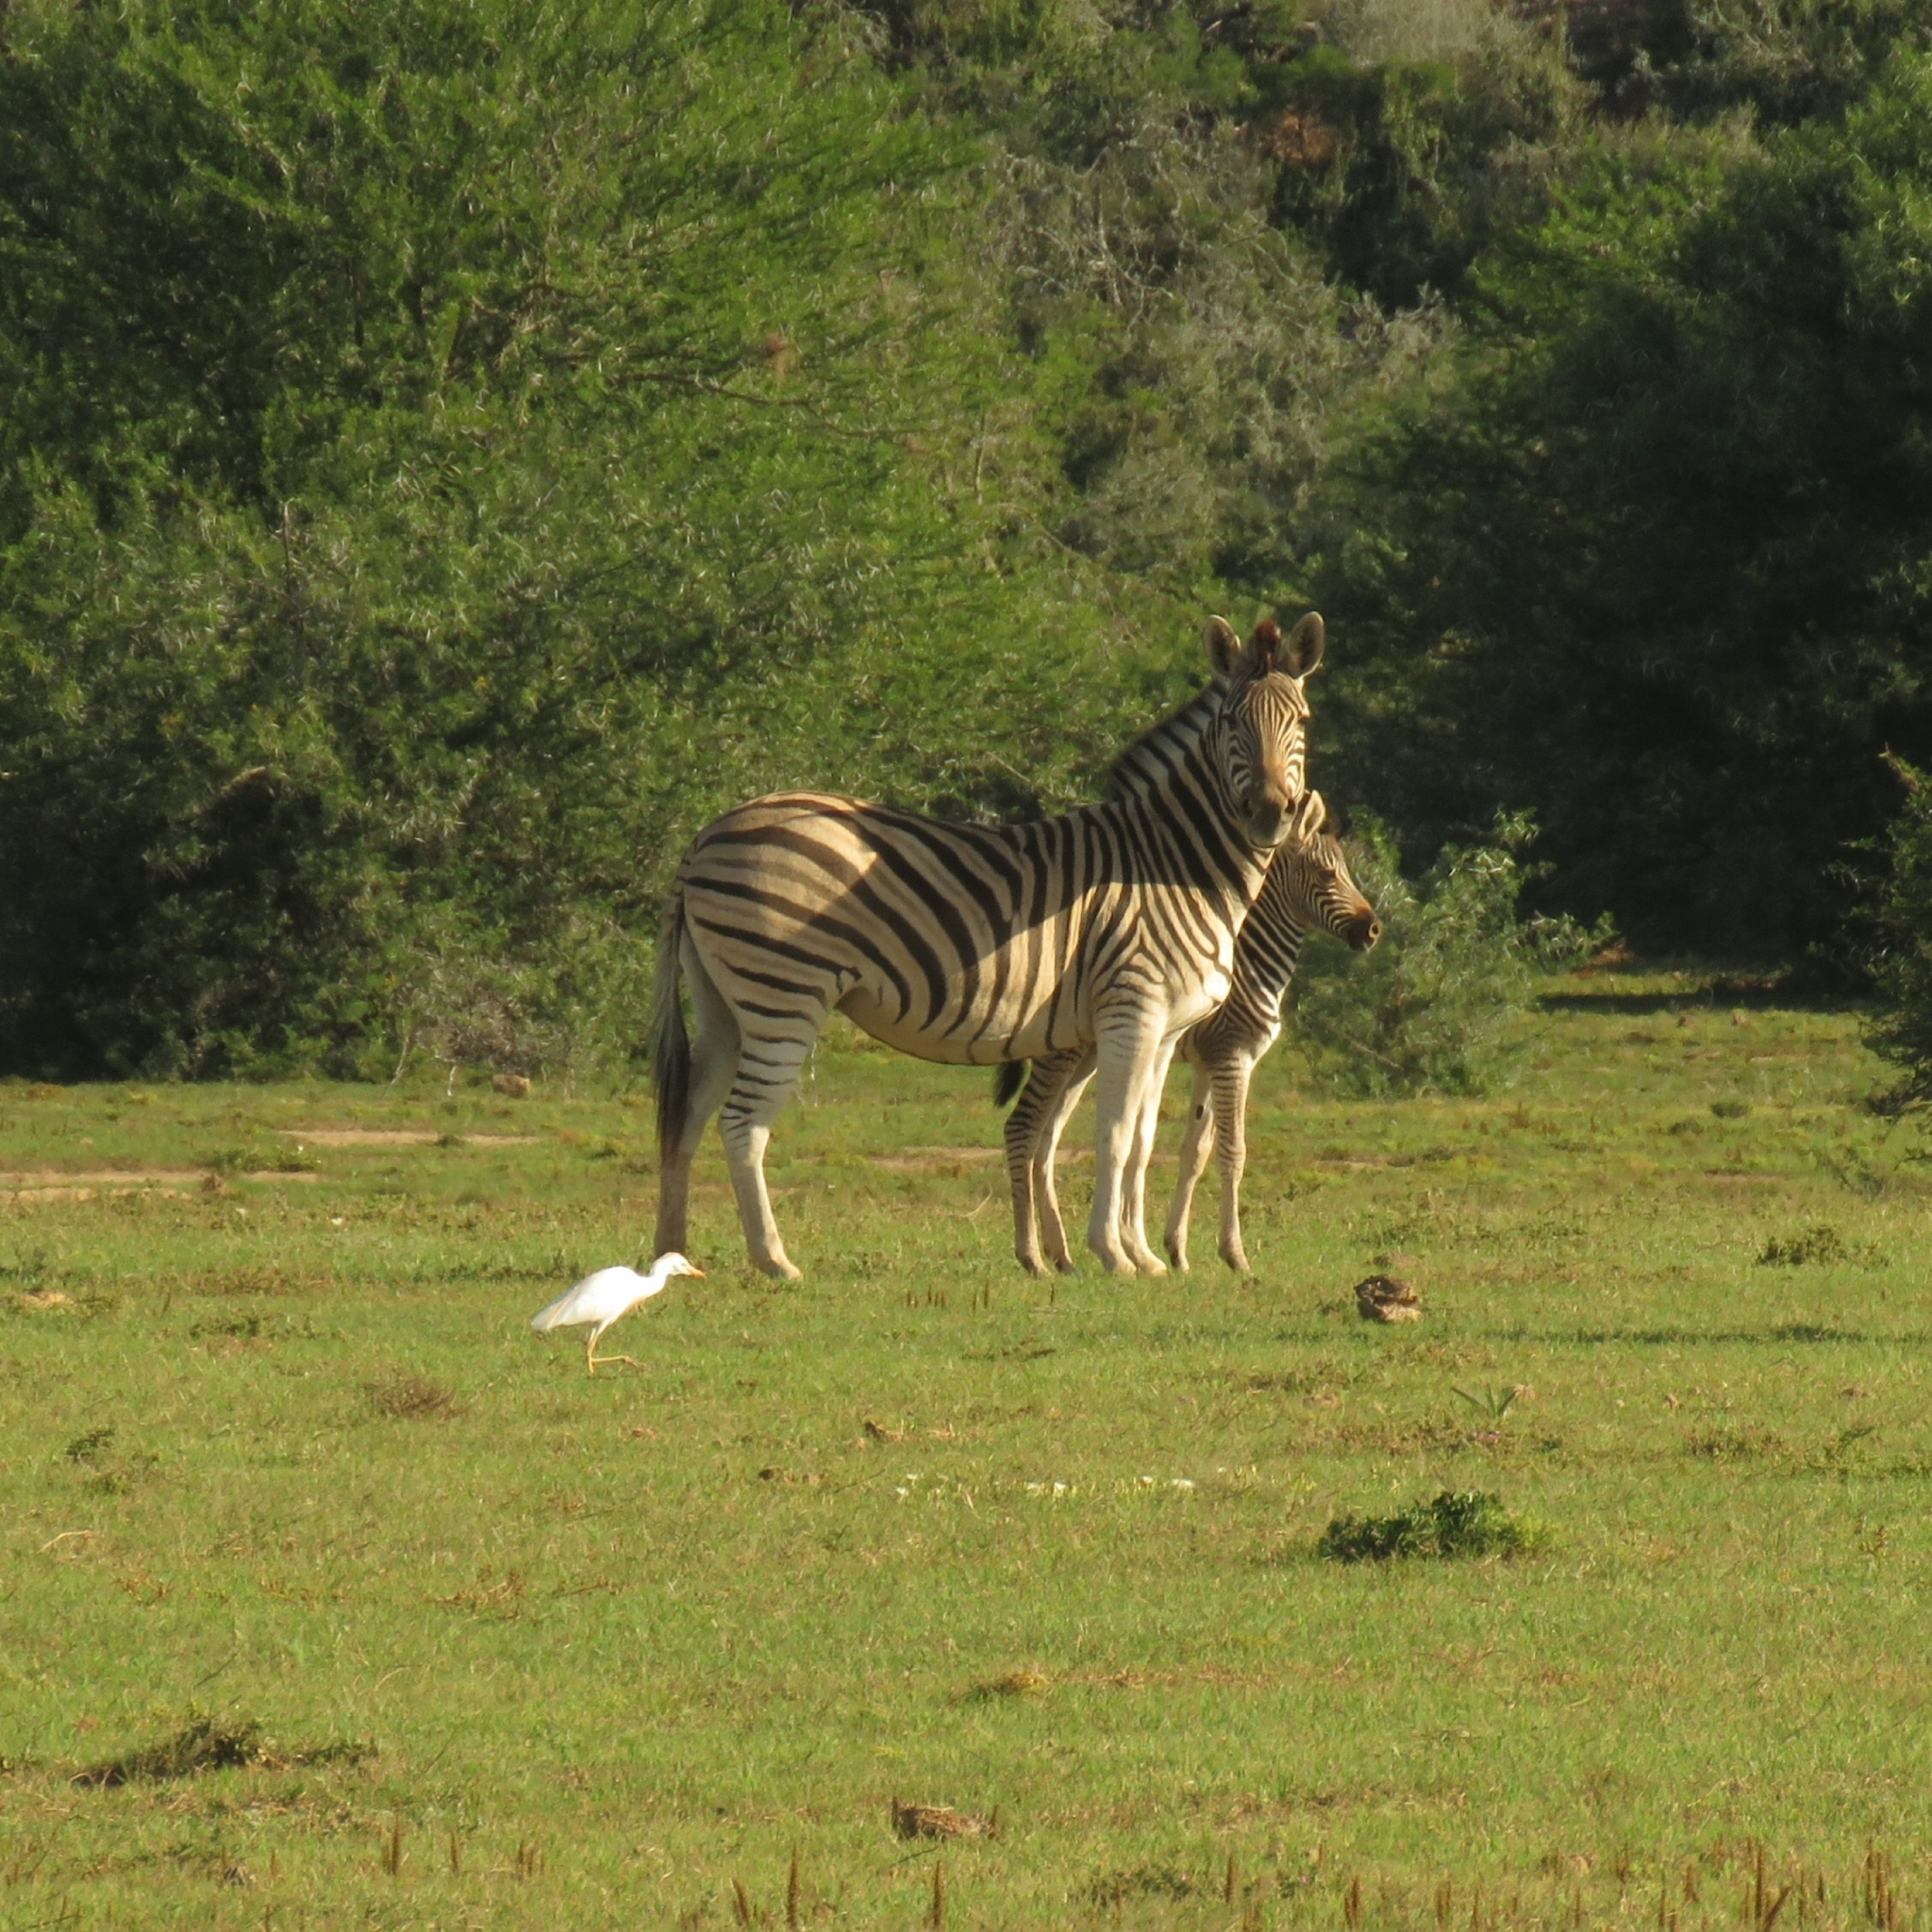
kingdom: Animalia
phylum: Chordata
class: Aves
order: Pelecaniformes
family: Ardeidae
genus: Bubulcus
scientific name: Bubulcus ibis
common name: Cattle egret
